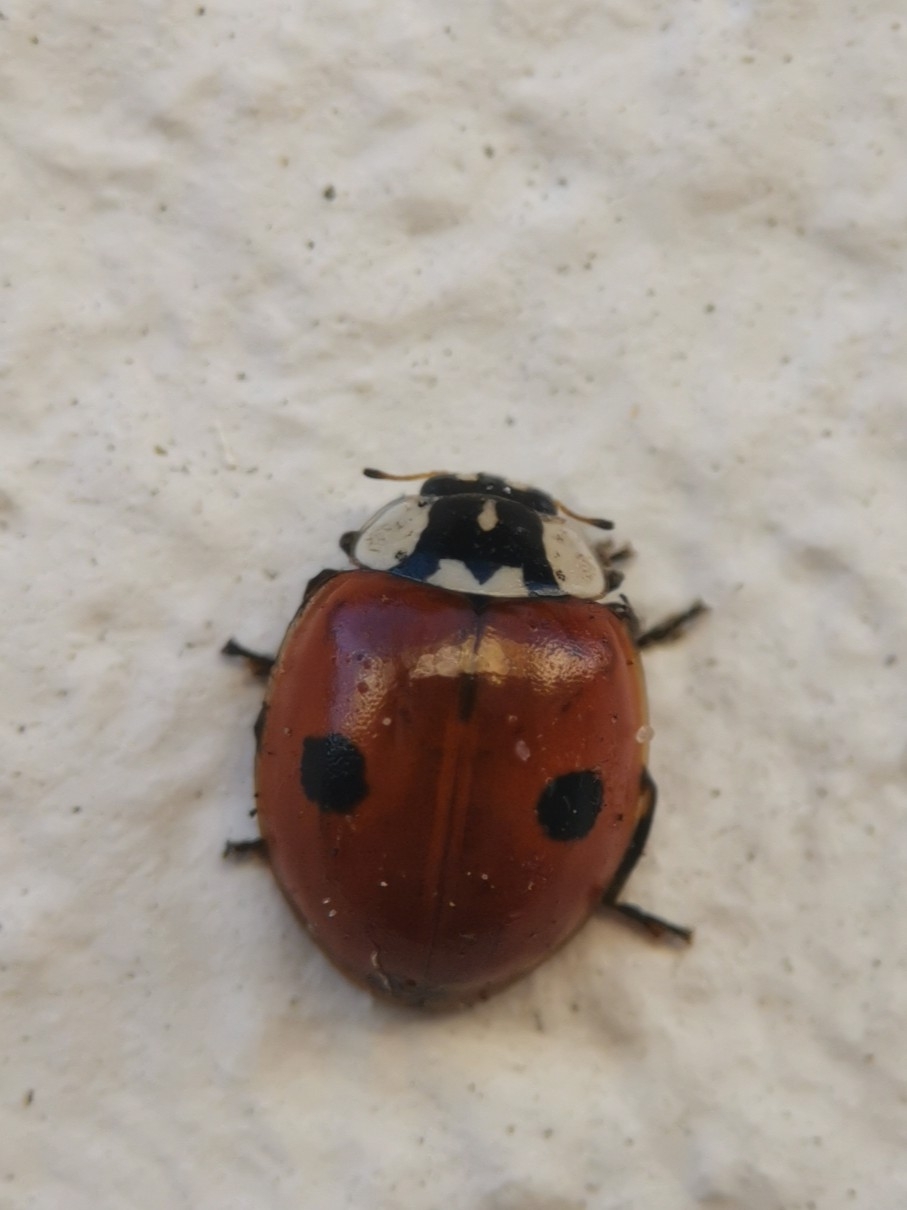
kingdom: Animalia
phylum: Arthropoda
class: Insecta
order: Coleoptera
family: Coccinellidae
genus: Adalia
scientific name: Adalia bipunctata
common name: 2-spot ladybird
